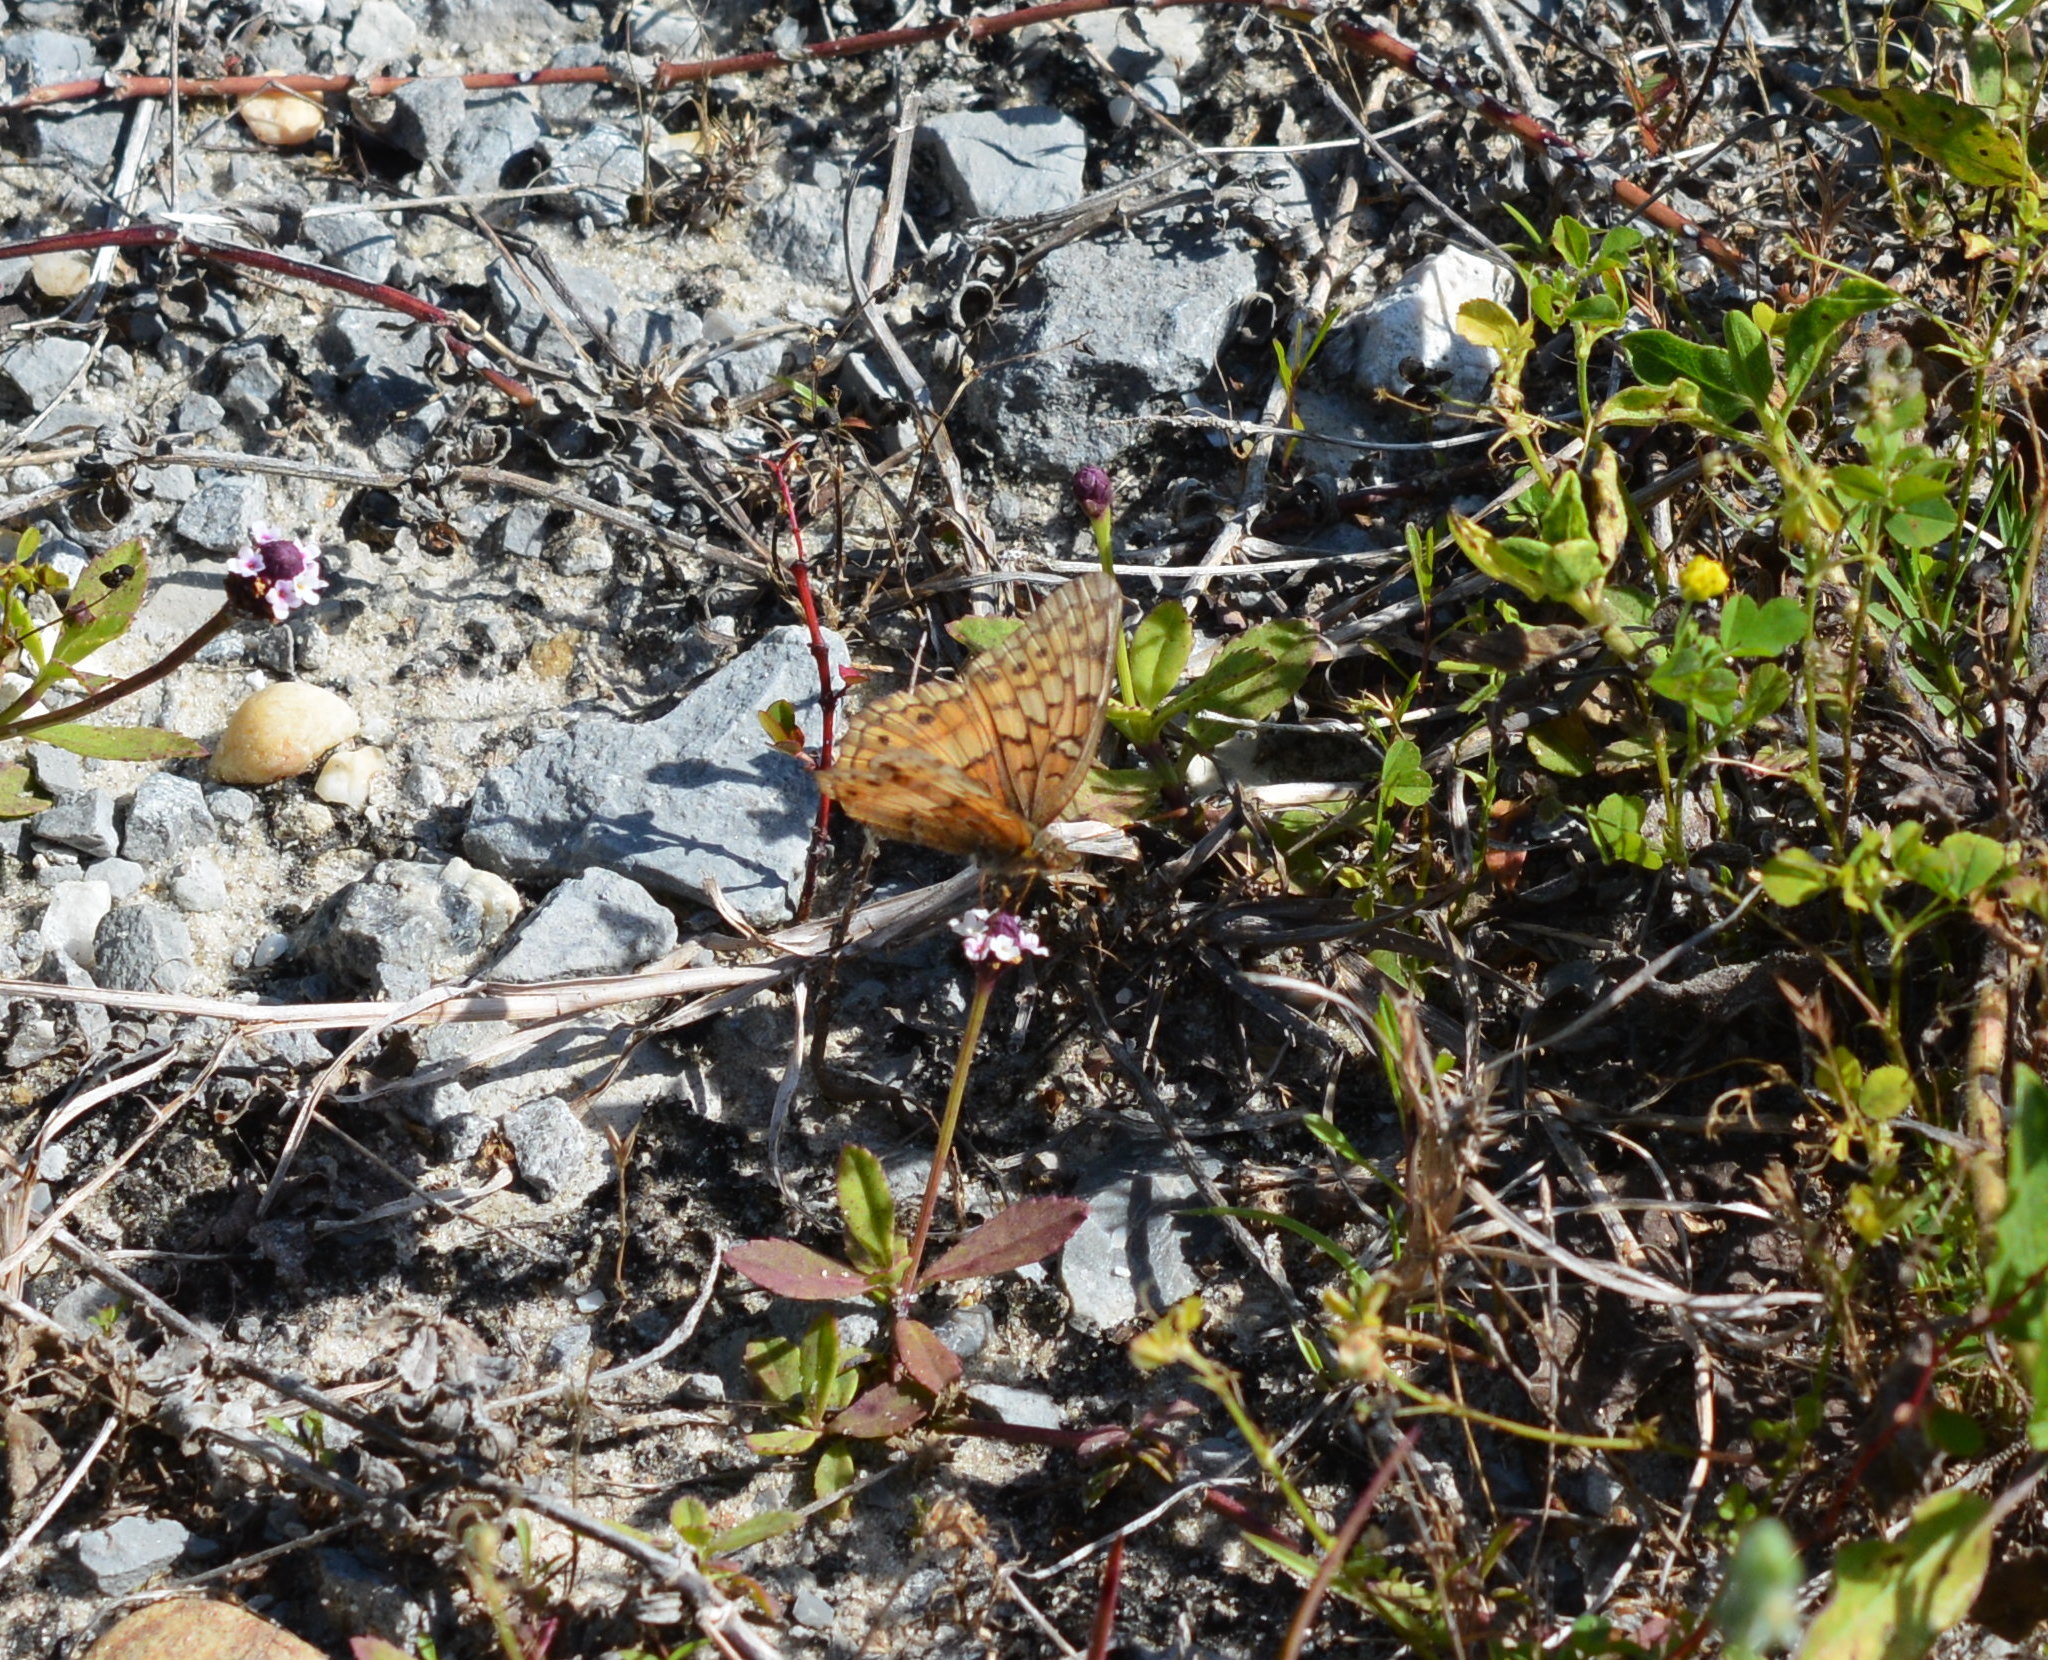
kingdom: Animalia
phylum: Arthropoda
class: Insecta
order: Lepidoptera
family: Nymphalidae
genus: Euptoieta
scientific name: Euptoieta claudia
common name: Variegated fritillary
